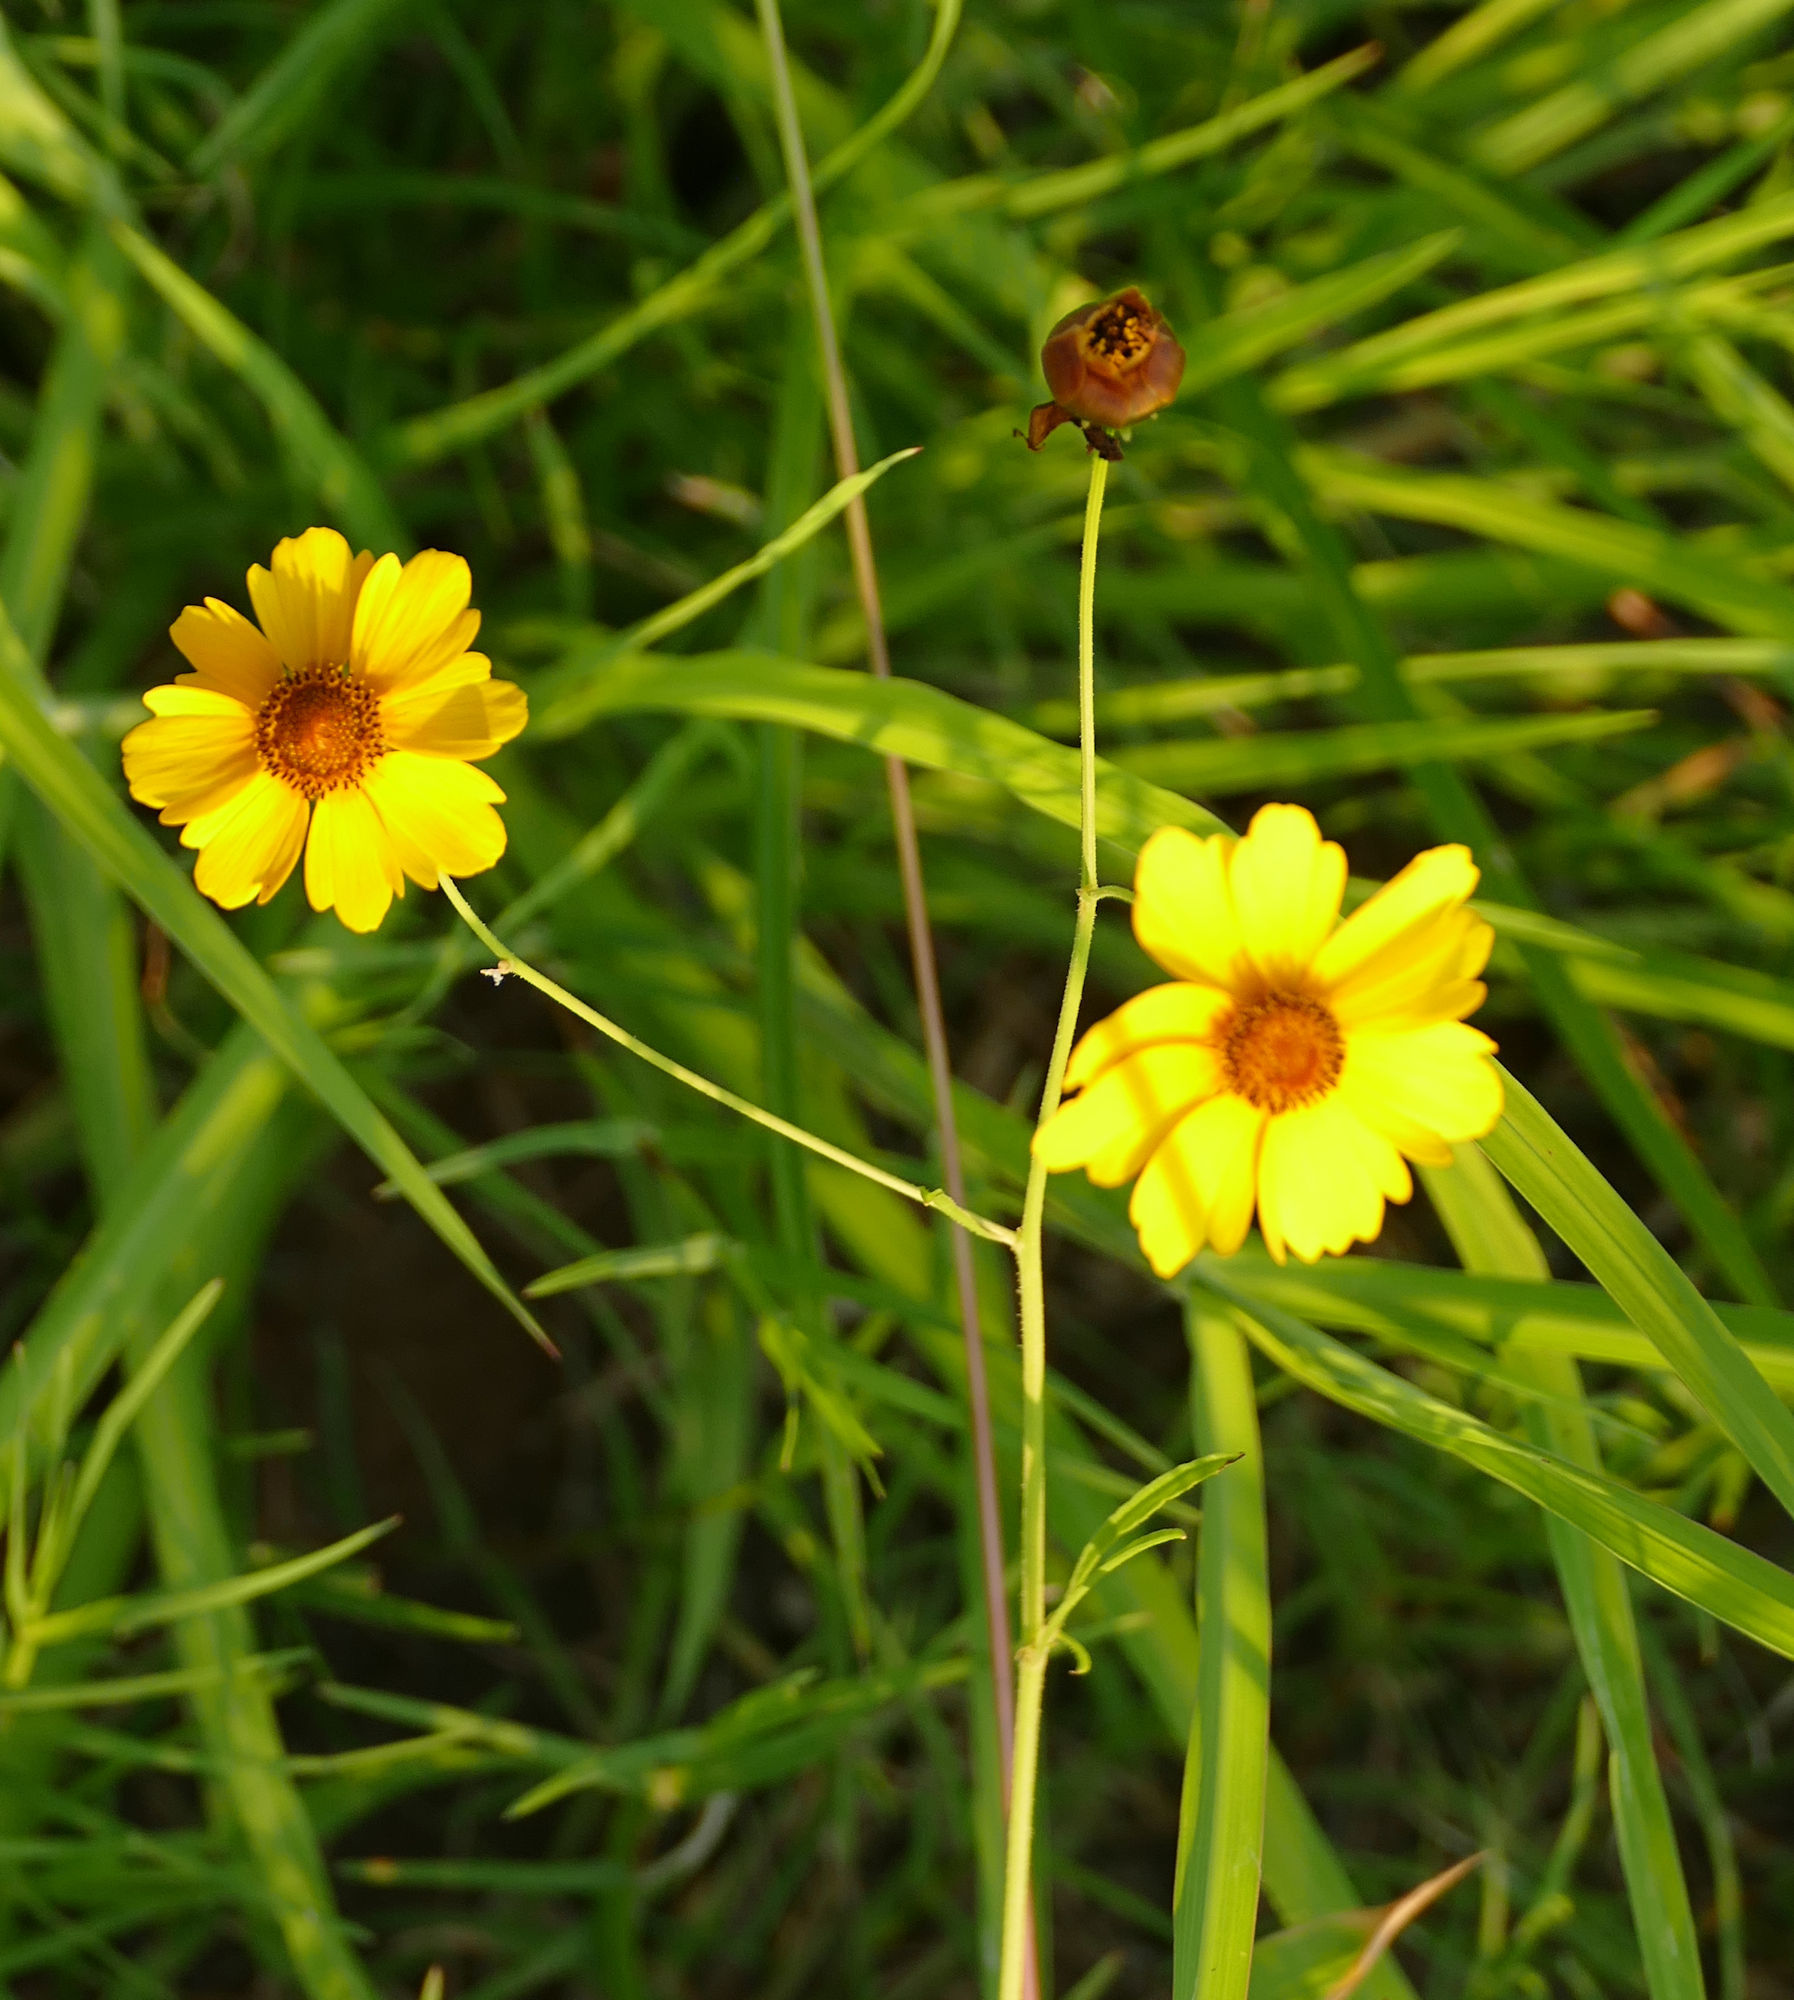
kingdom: Plantae
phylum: Tracheophyta
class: Magnoliopsida
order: Asterales
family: Asteraceae
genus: Thelesperma
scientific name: Thelesperma filifolium
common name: Stiff greenthread
